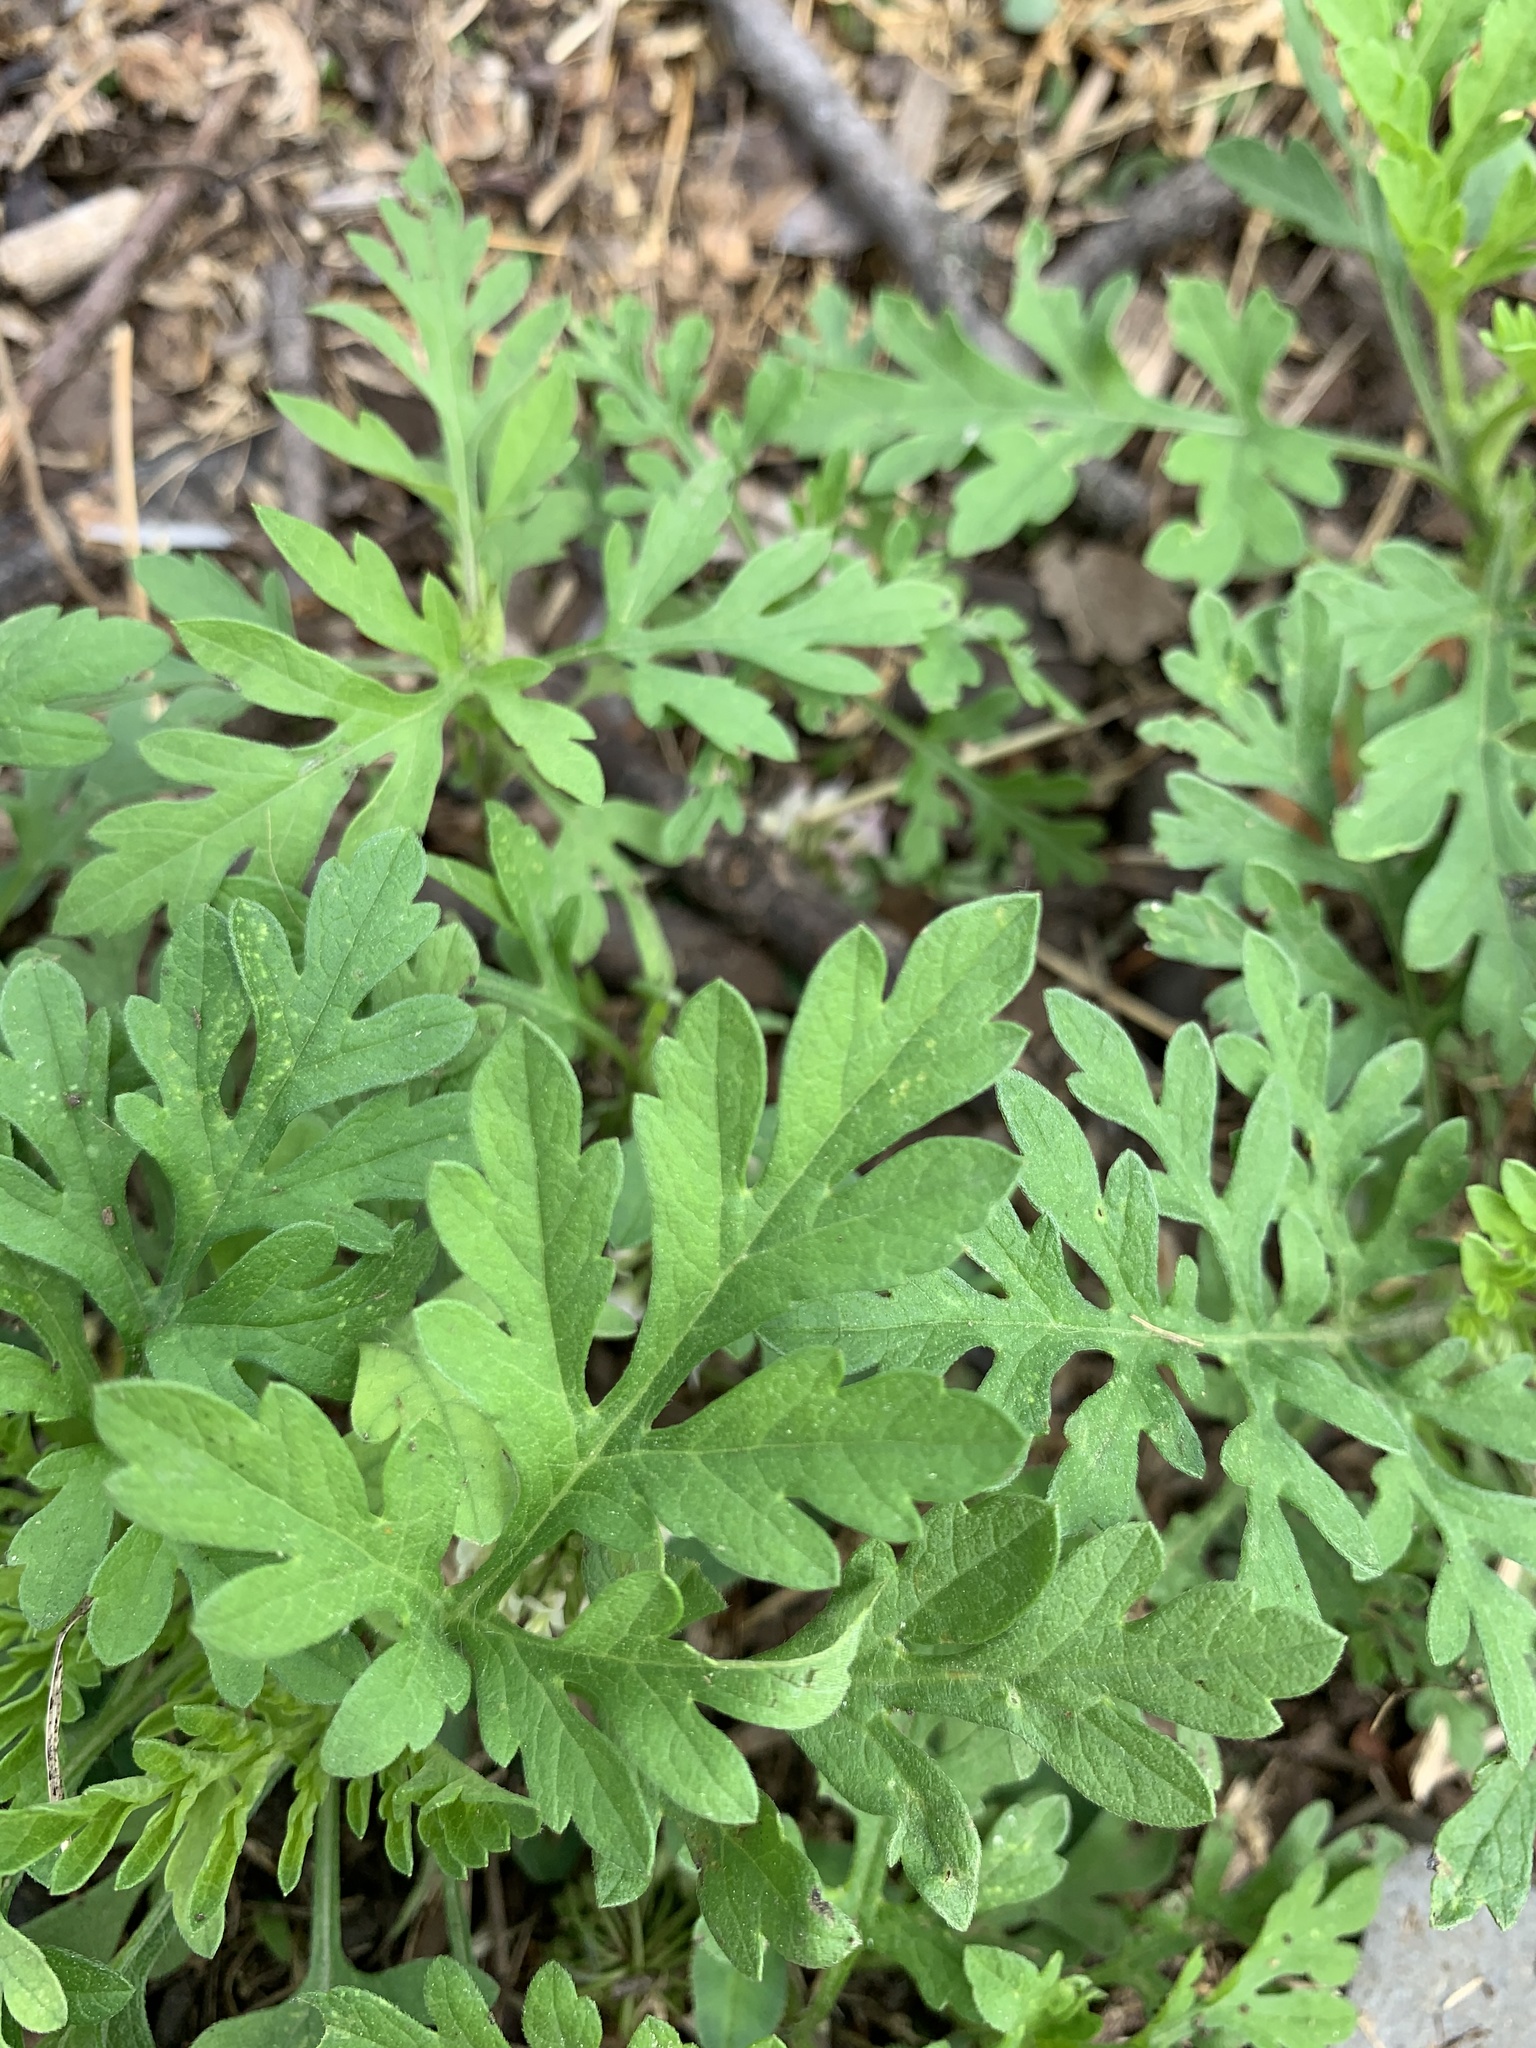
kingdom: Plantae
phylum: Tracheophyta
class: Magnoliopsida
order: Asterales
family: Asteraceae
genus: Ambrosia
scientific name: Ambrosia artemisiifolia
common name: Annual ragweed
